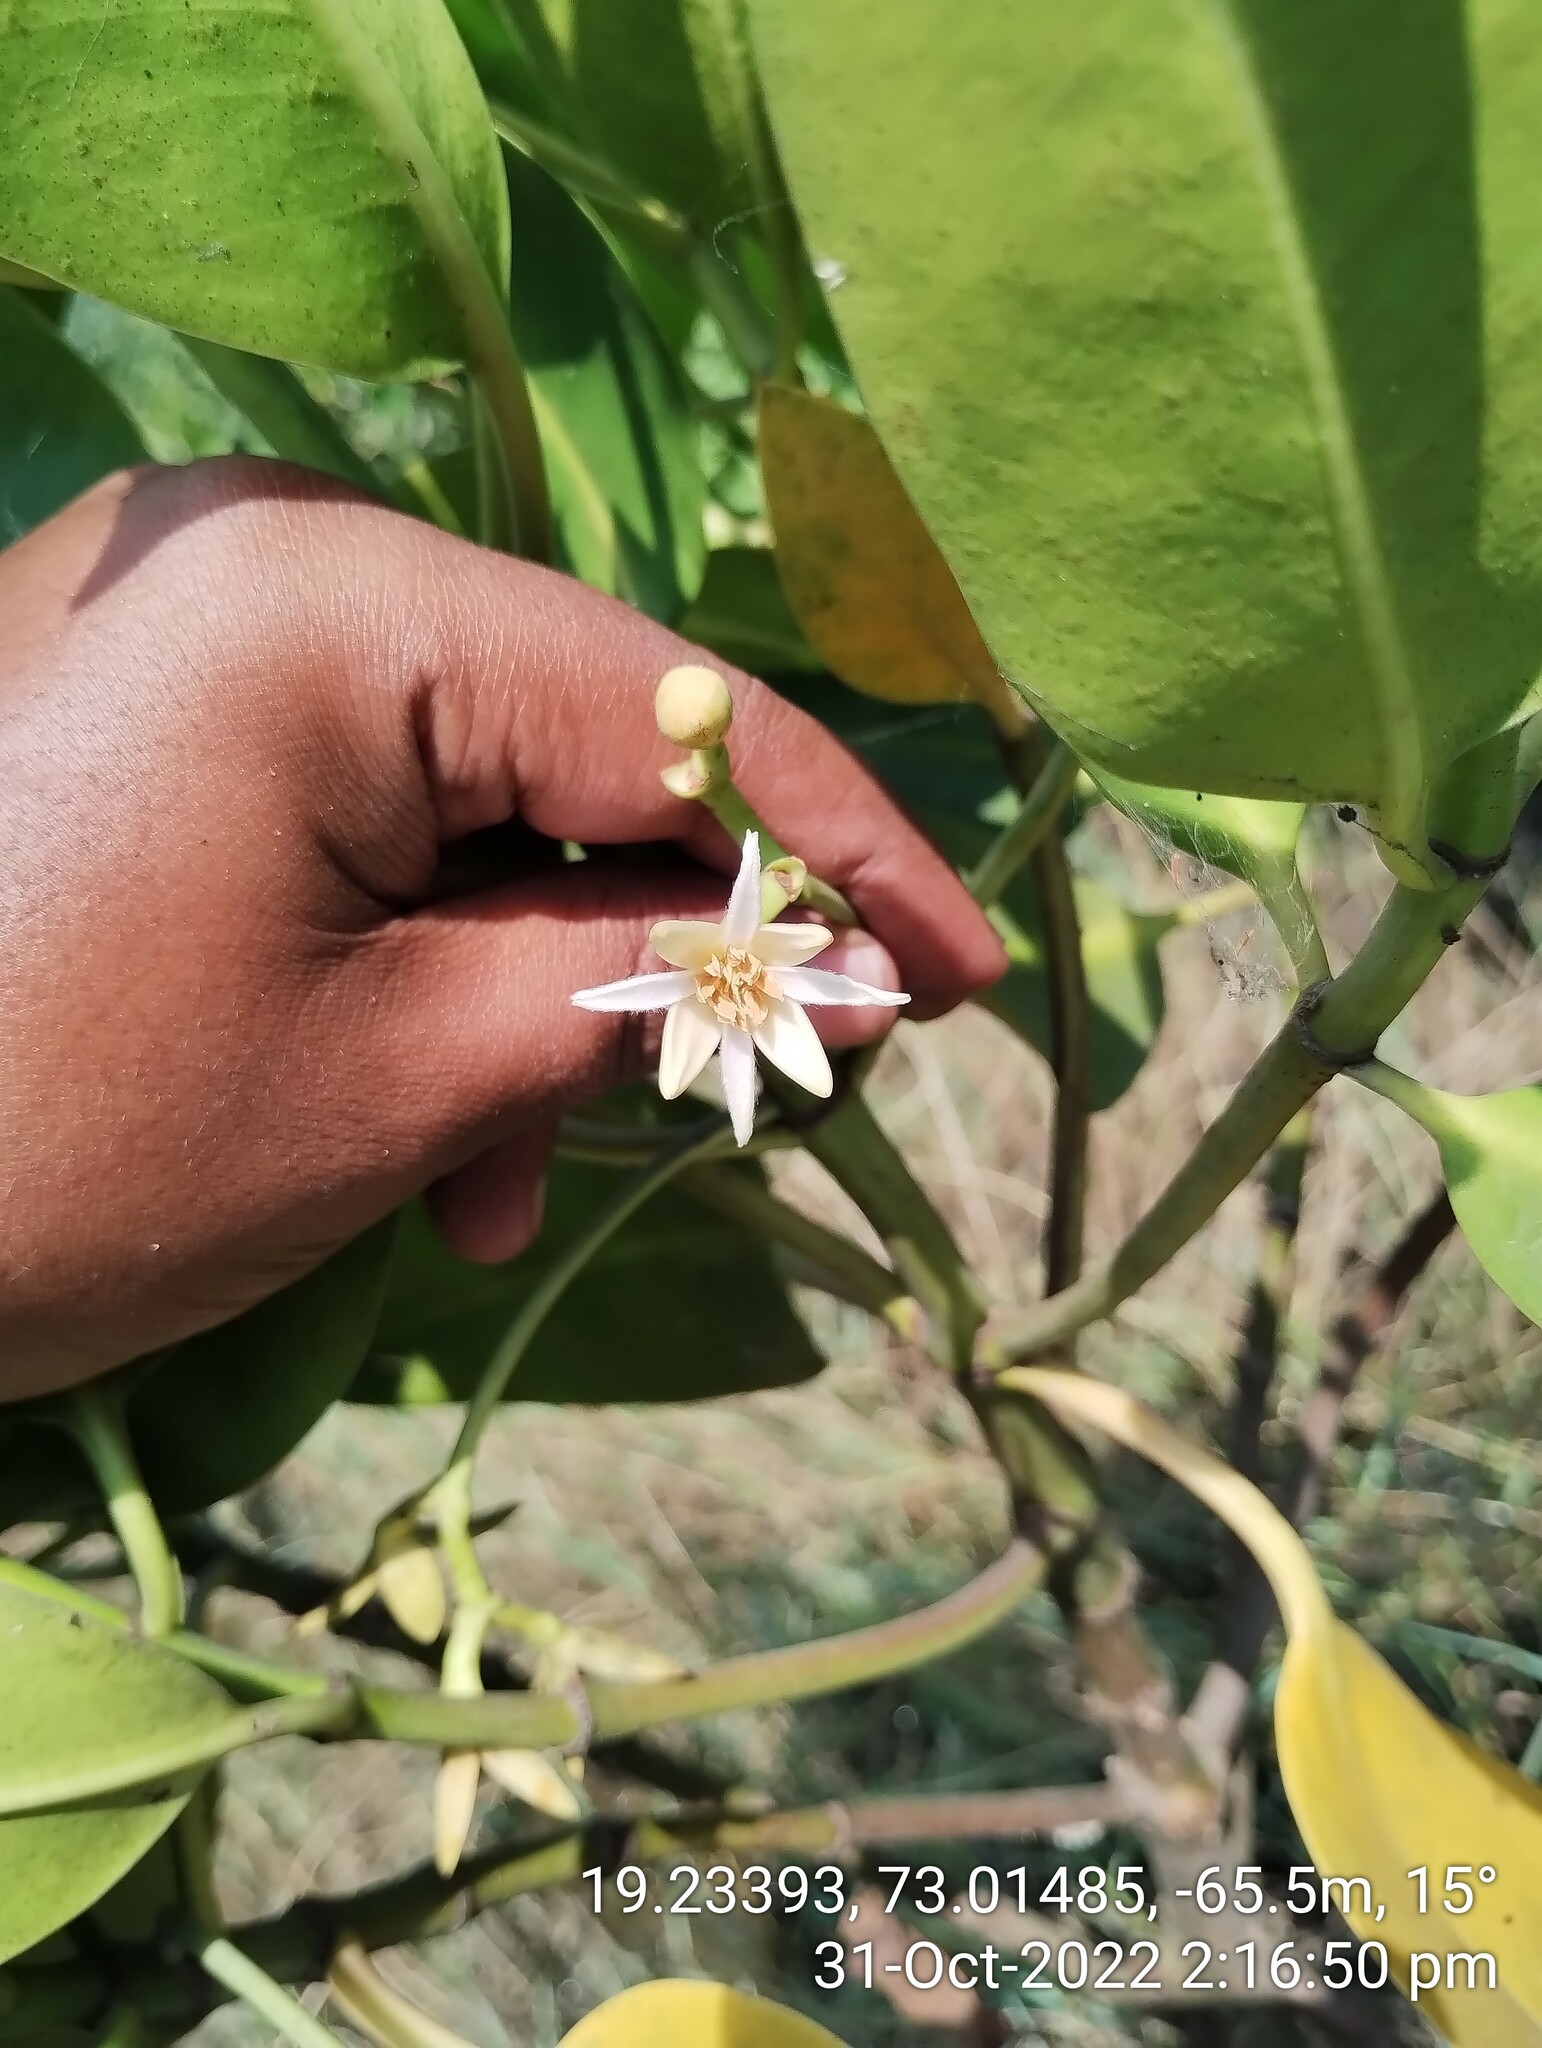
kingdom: Plantae
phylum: Tracheophyta
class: Magnoliopsida
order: Malpighiales
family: Rhizophoraceae
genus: Rhizophora
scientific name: Rhizophora mucronata
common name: Loop-root mangrove
